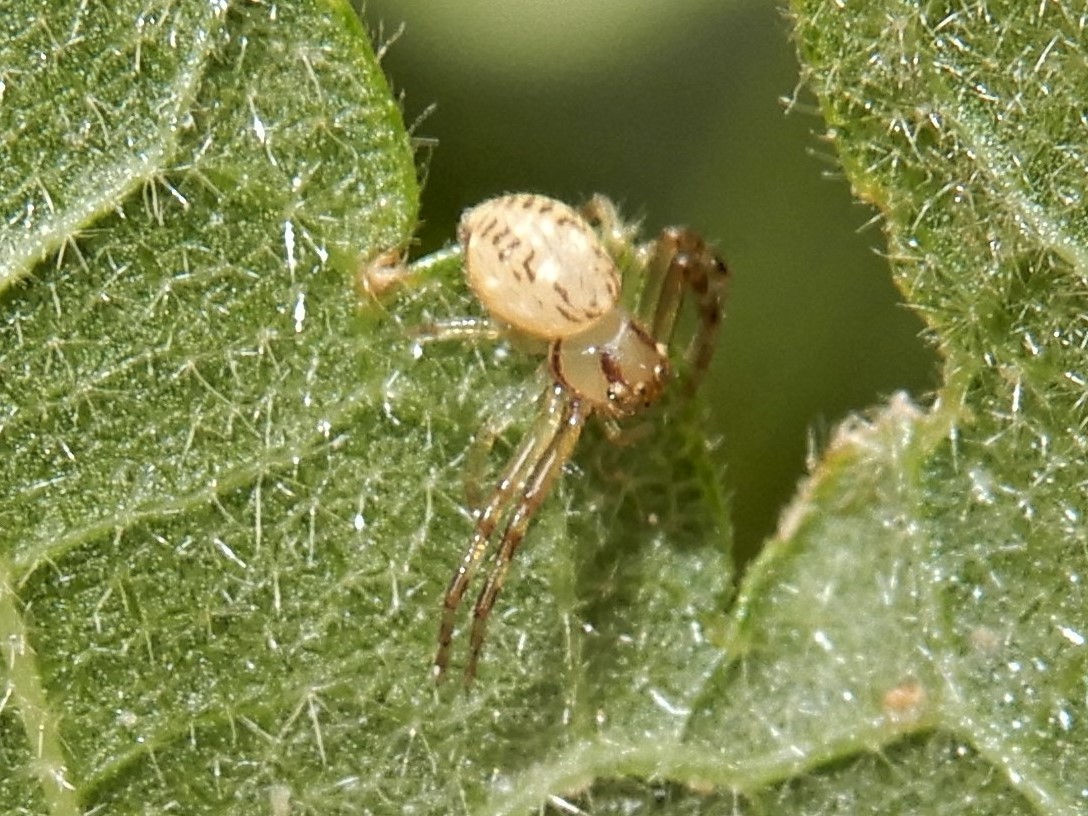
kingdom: Animalia
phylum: Arthropoda
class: Arachnida
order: Araneae
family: Thomisidae
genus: Diaea
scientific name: Diaea ambara
